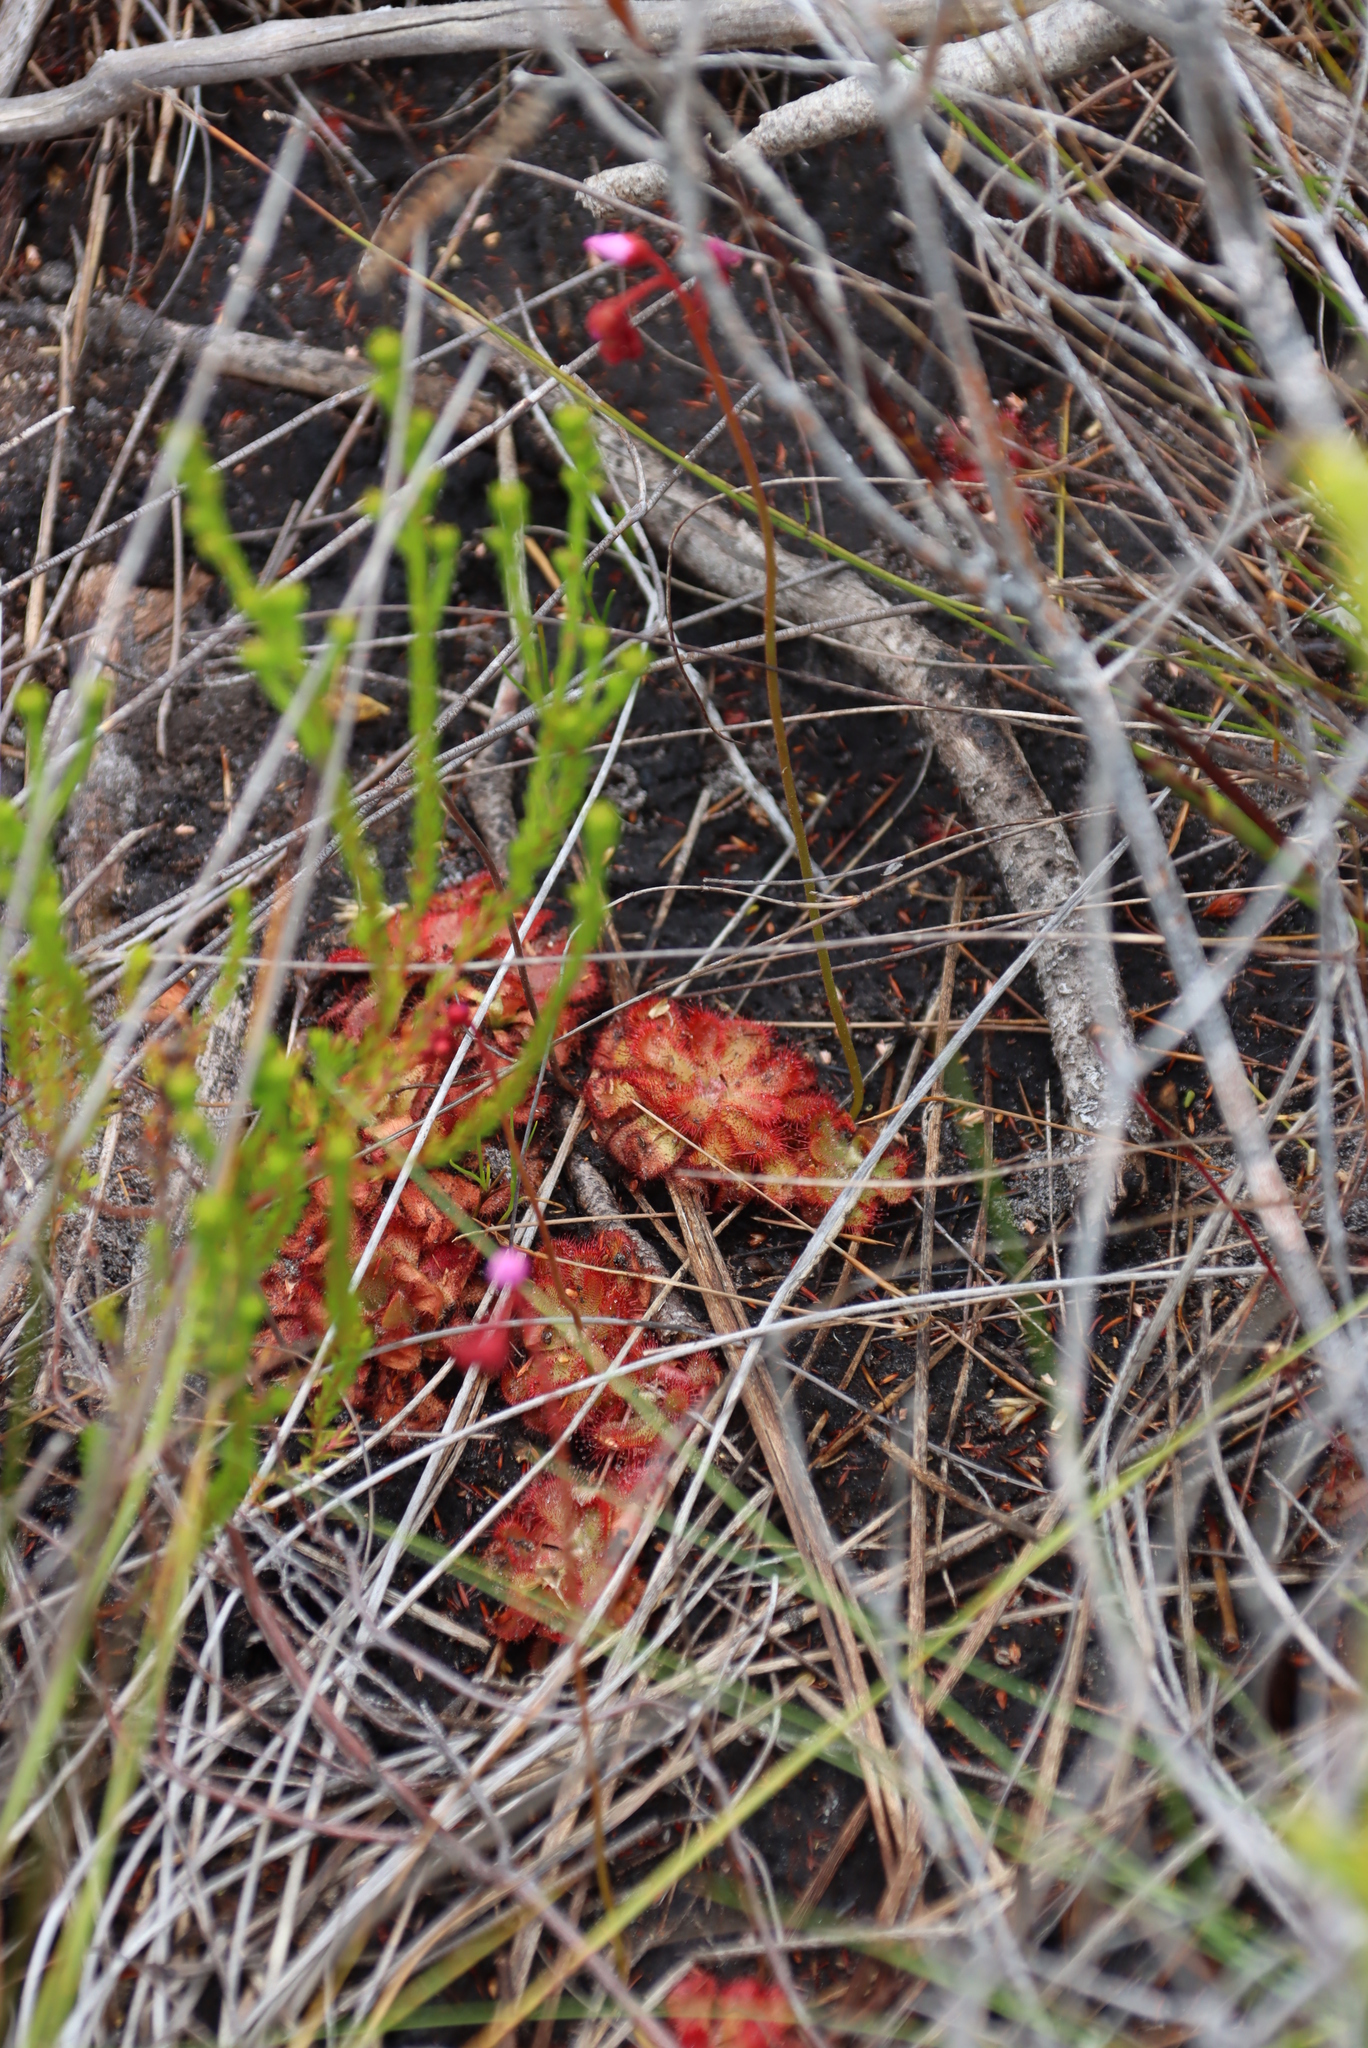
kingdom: Plantae
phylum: Tracheophyta
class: Magnoliopsida
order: Caryophyllales
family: Droseraceae
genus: Drosera
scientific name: Drosera aliciae
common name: Alice sundew
